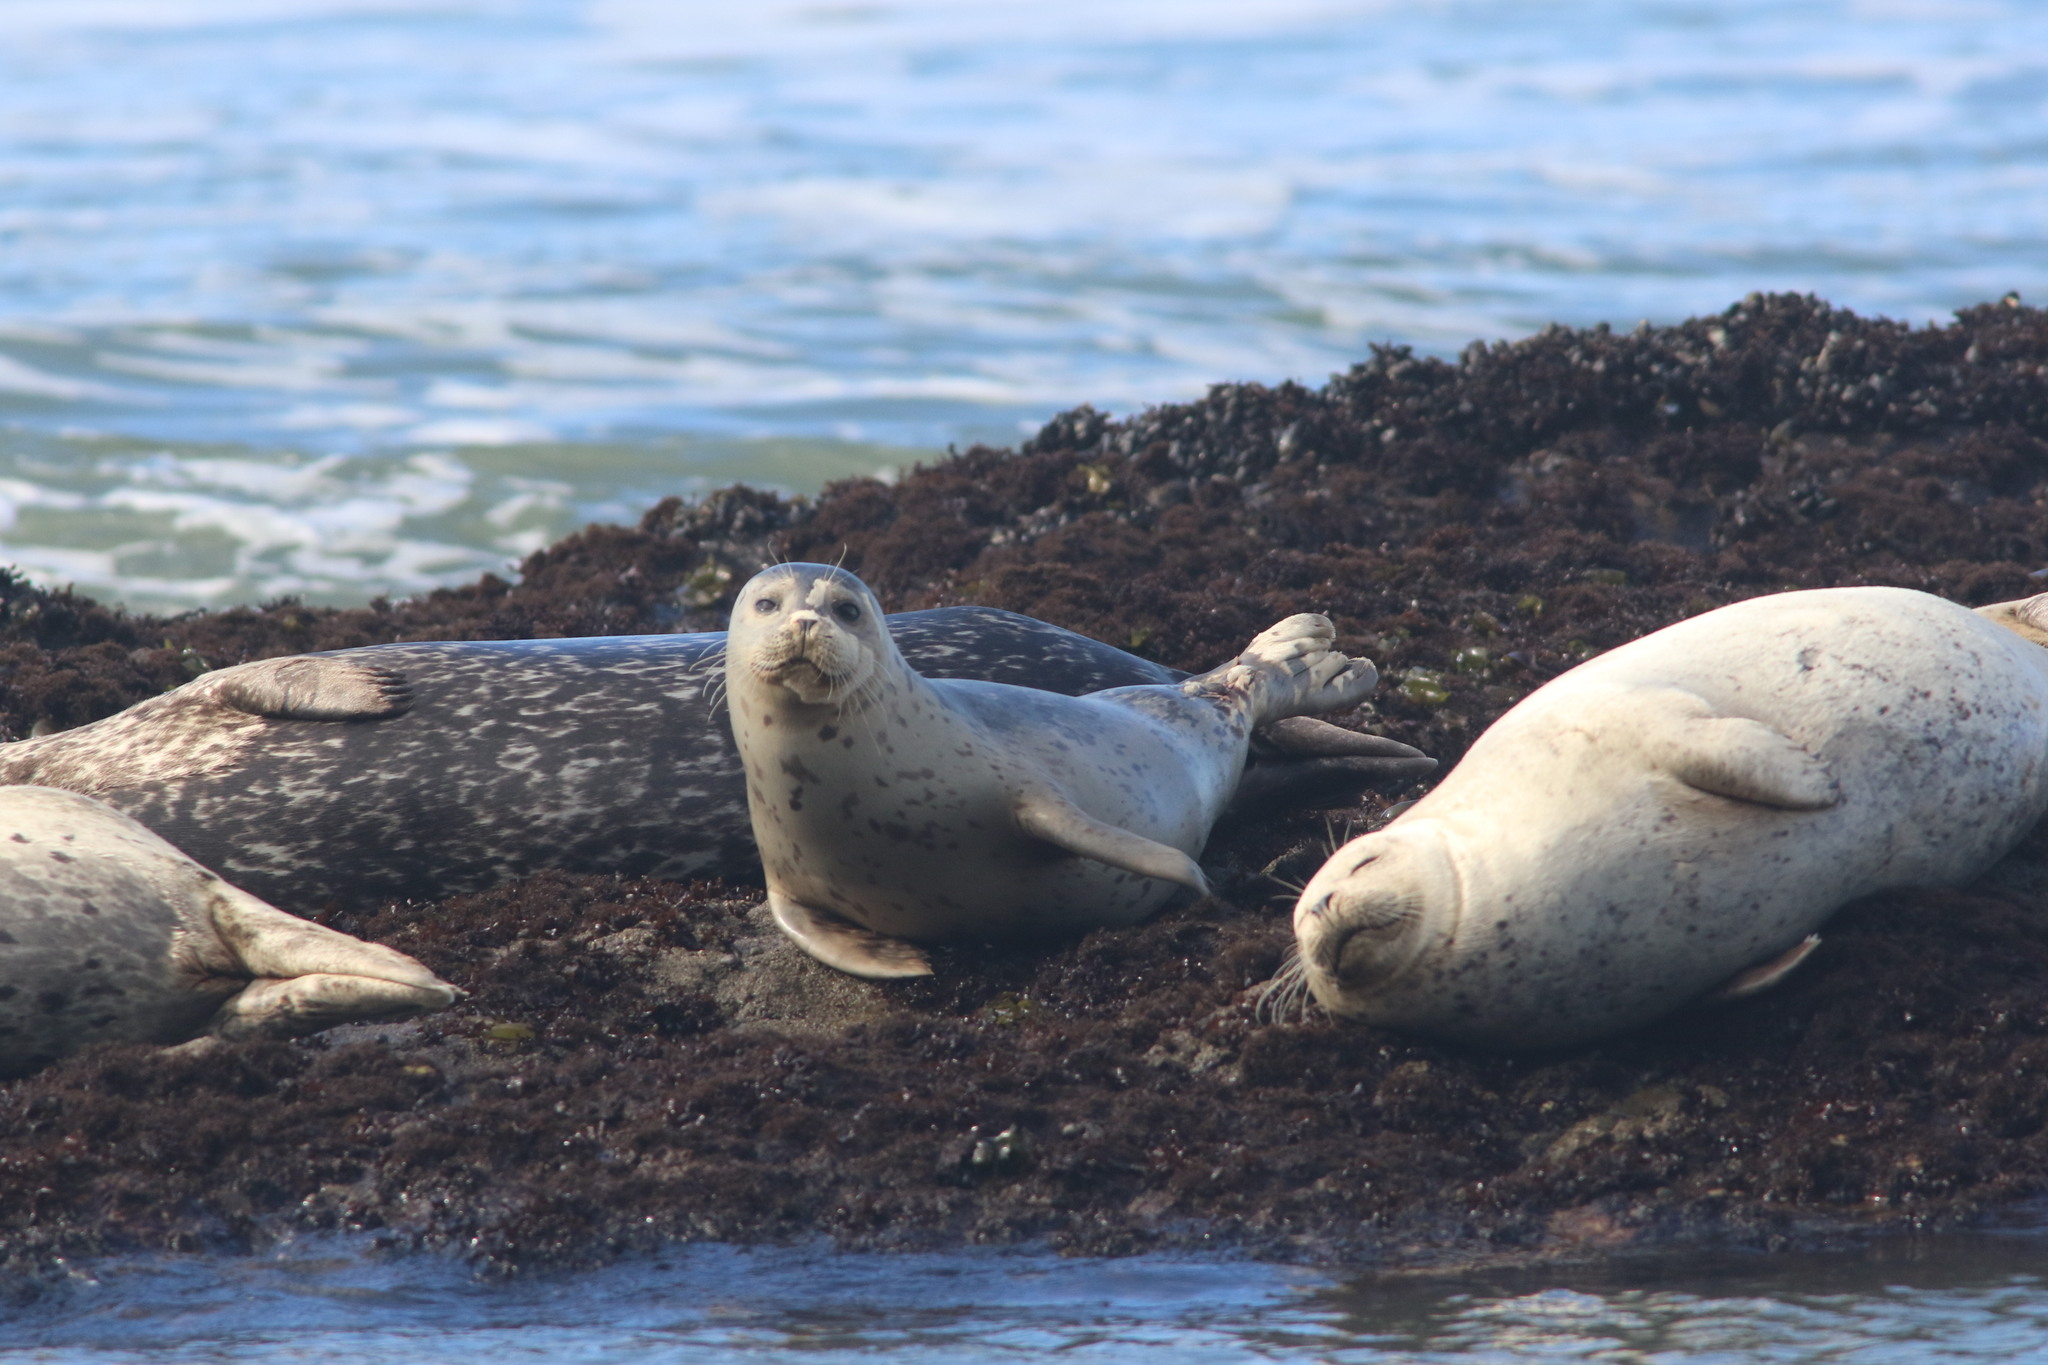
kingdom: Animalia
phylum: Chordata
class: Mammalia
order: Carnivora
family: Phocidae
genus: Phoca
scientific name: Phoca vitulina
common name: Harbor seal
